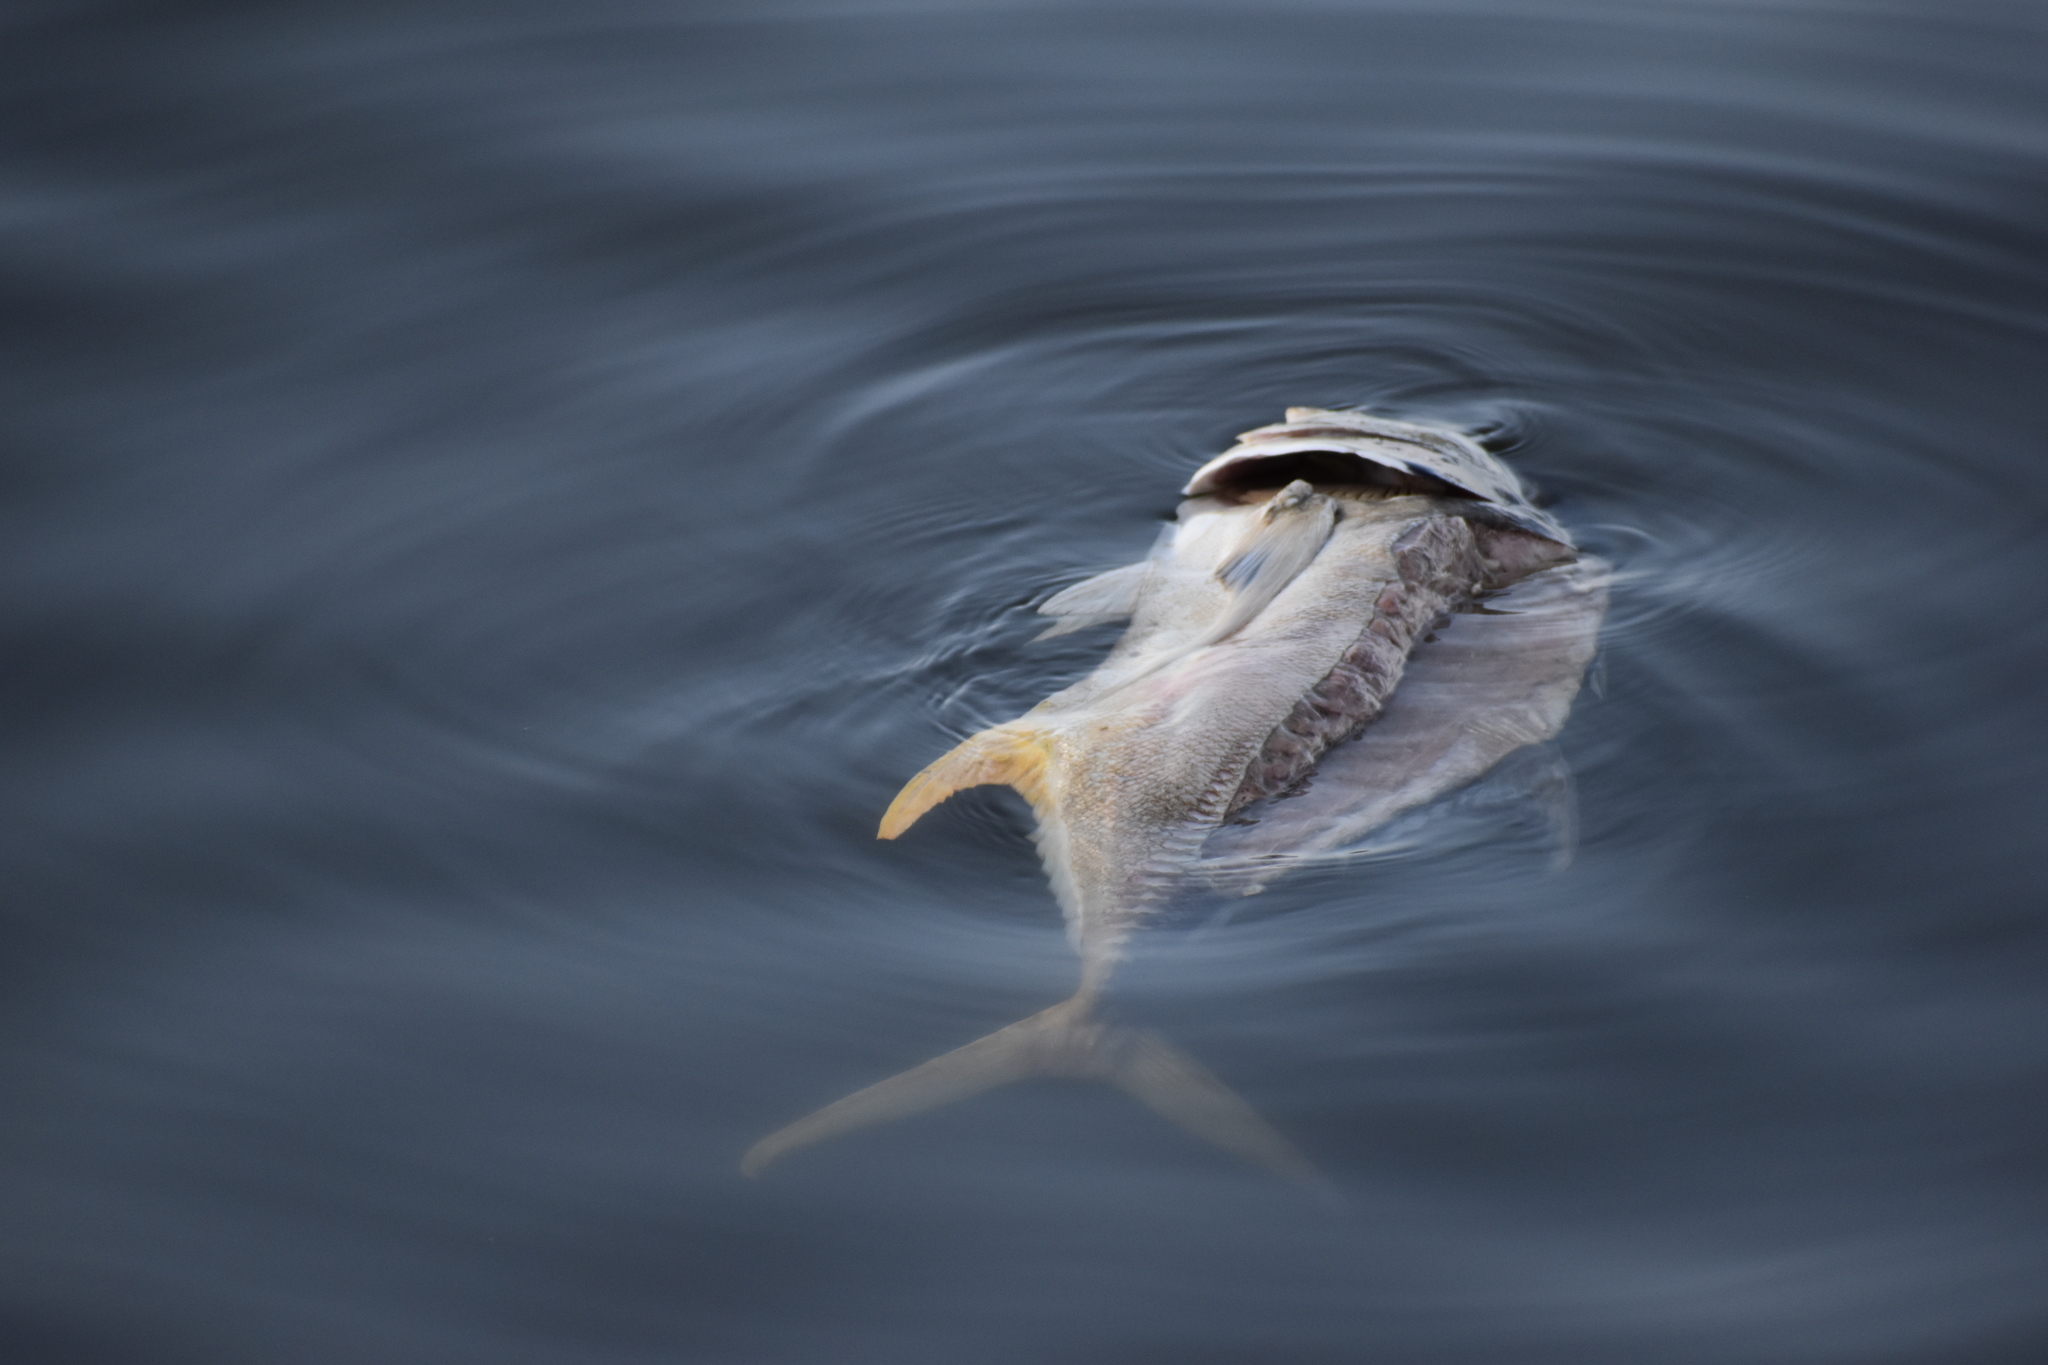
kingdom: Animalia
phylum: Chordata
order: Perciformes
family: Carangidae
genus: Caranx
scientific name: Caranx hippos
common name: Common jack
